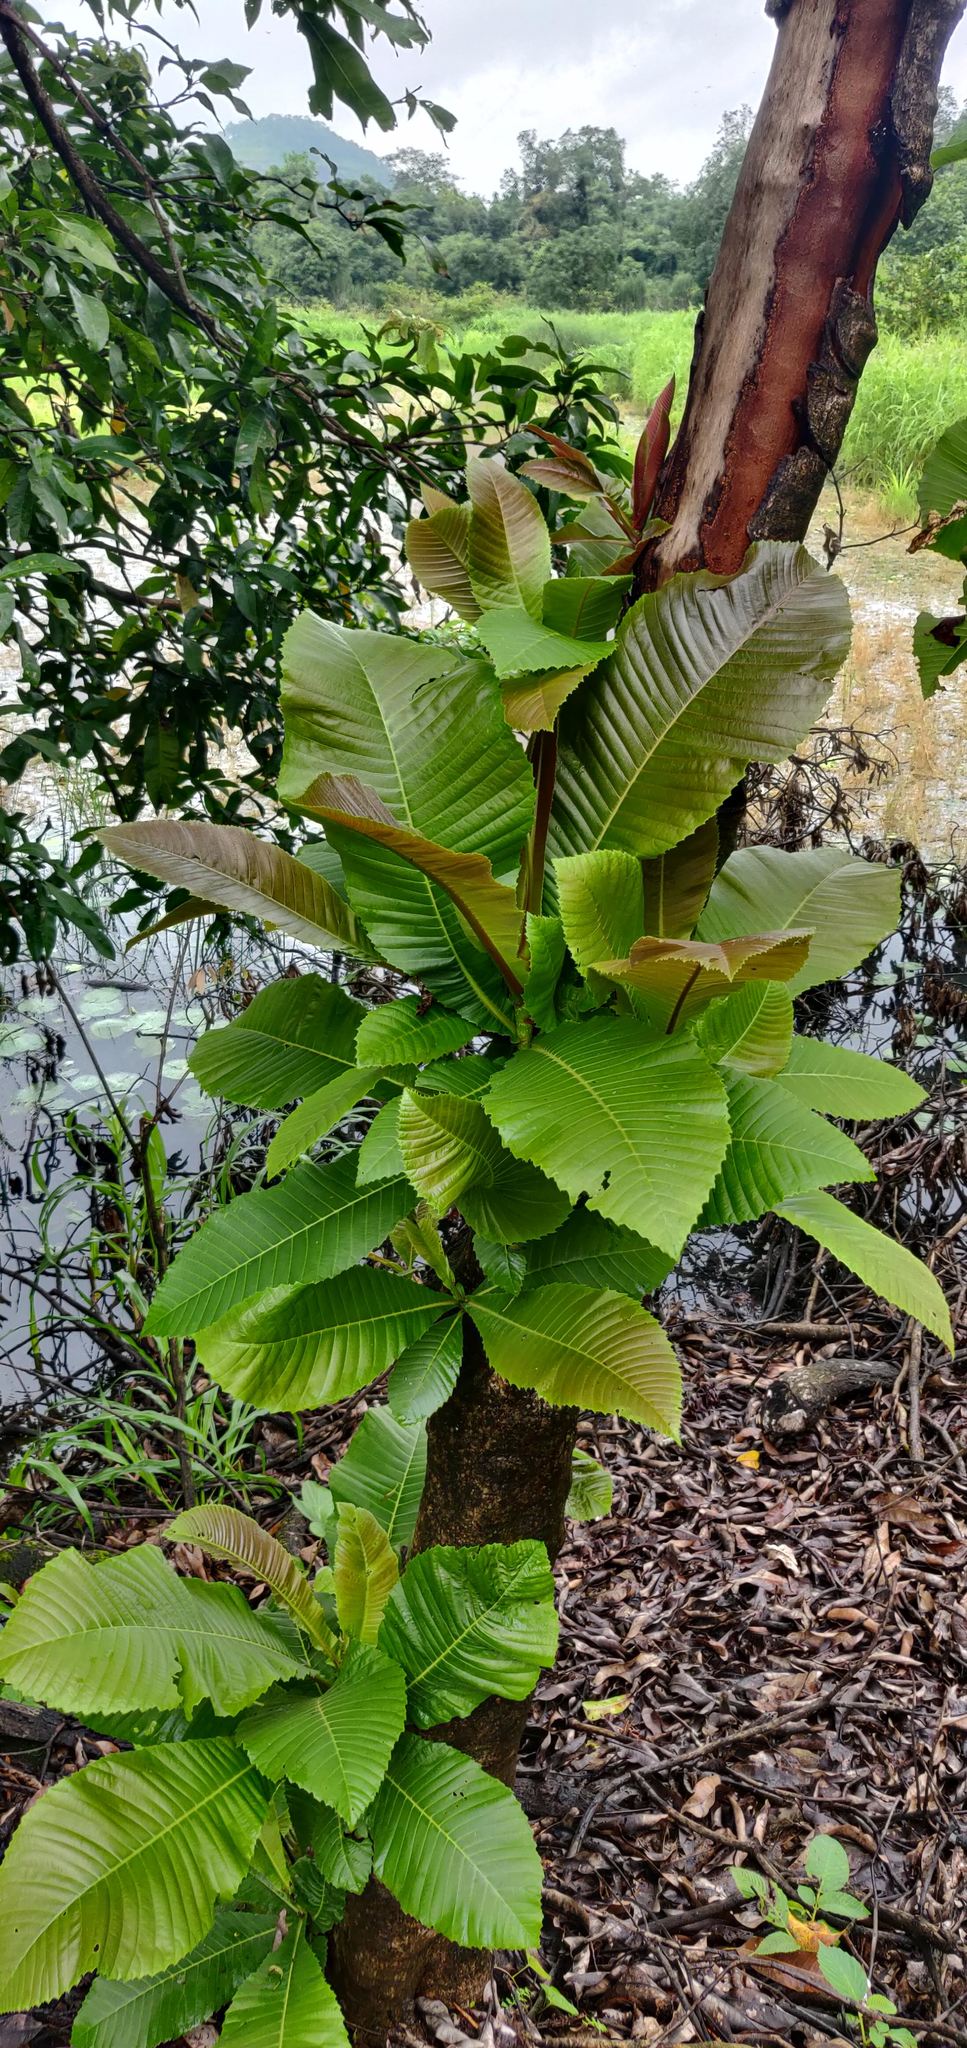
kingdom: Plantae
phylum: Tracheophyta
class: Magnoliopsida
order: Dilleniales
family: Dilleniaceae
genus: Dillenia
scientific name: Dillenia pentagyna
